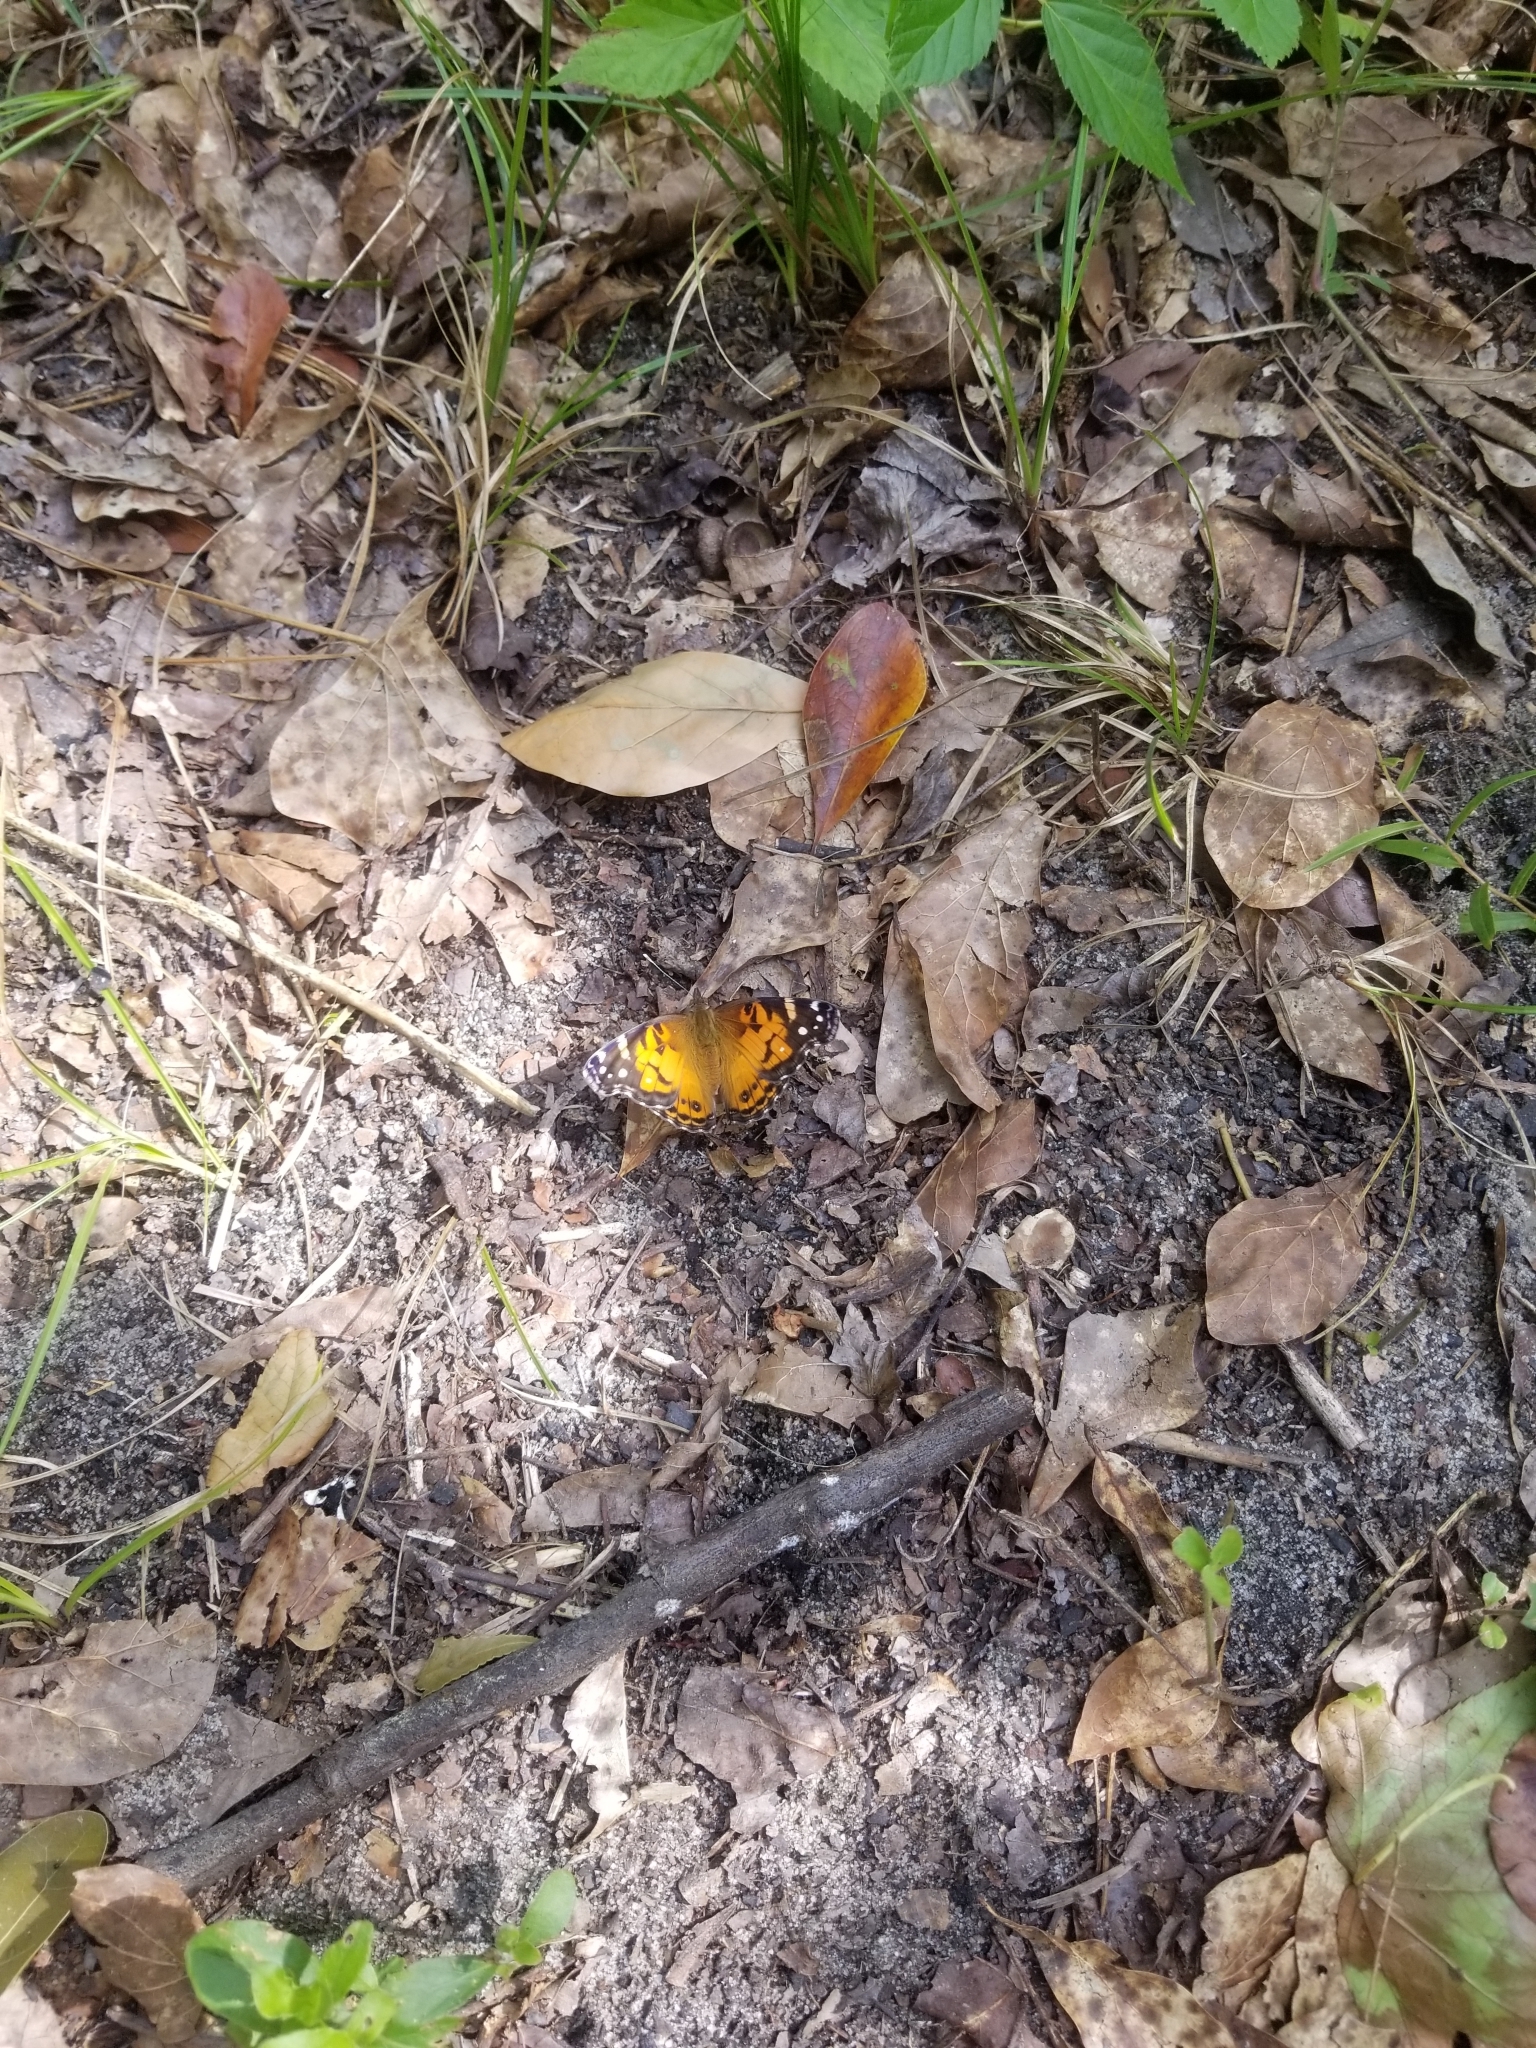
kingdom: Animalia
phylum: Arthropoda
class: Insecta
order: Lepidoptera
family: Nymphalidae
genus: Vanessa
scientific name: Vanessa virginiensis
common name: American lady
